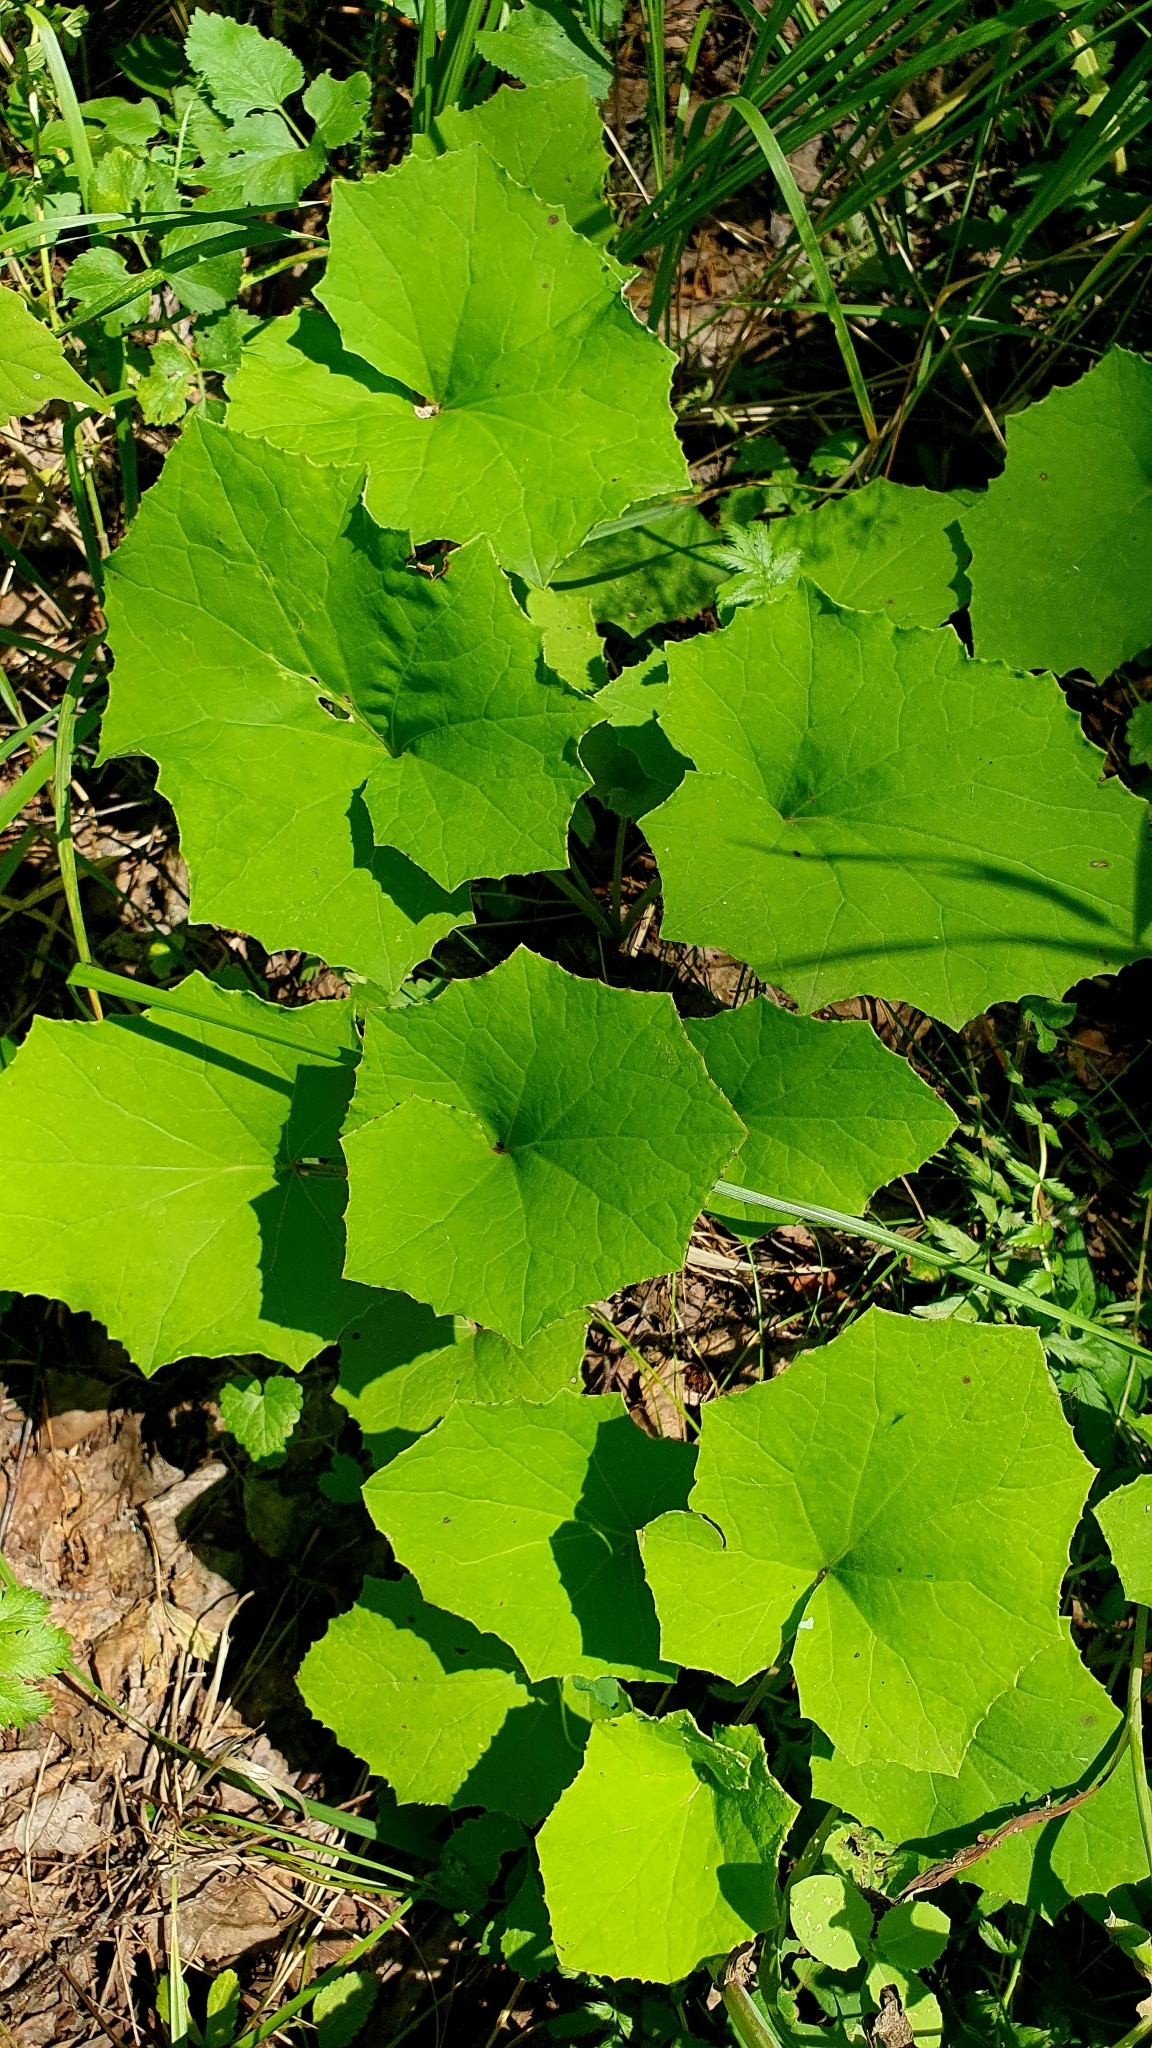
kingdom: Plantae
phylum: Tracheophyta
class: Magnoliopsida
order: Asterales
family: Asteraceae
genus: Tussilago
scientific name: Tussilago farfara
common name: Coltsfoot
